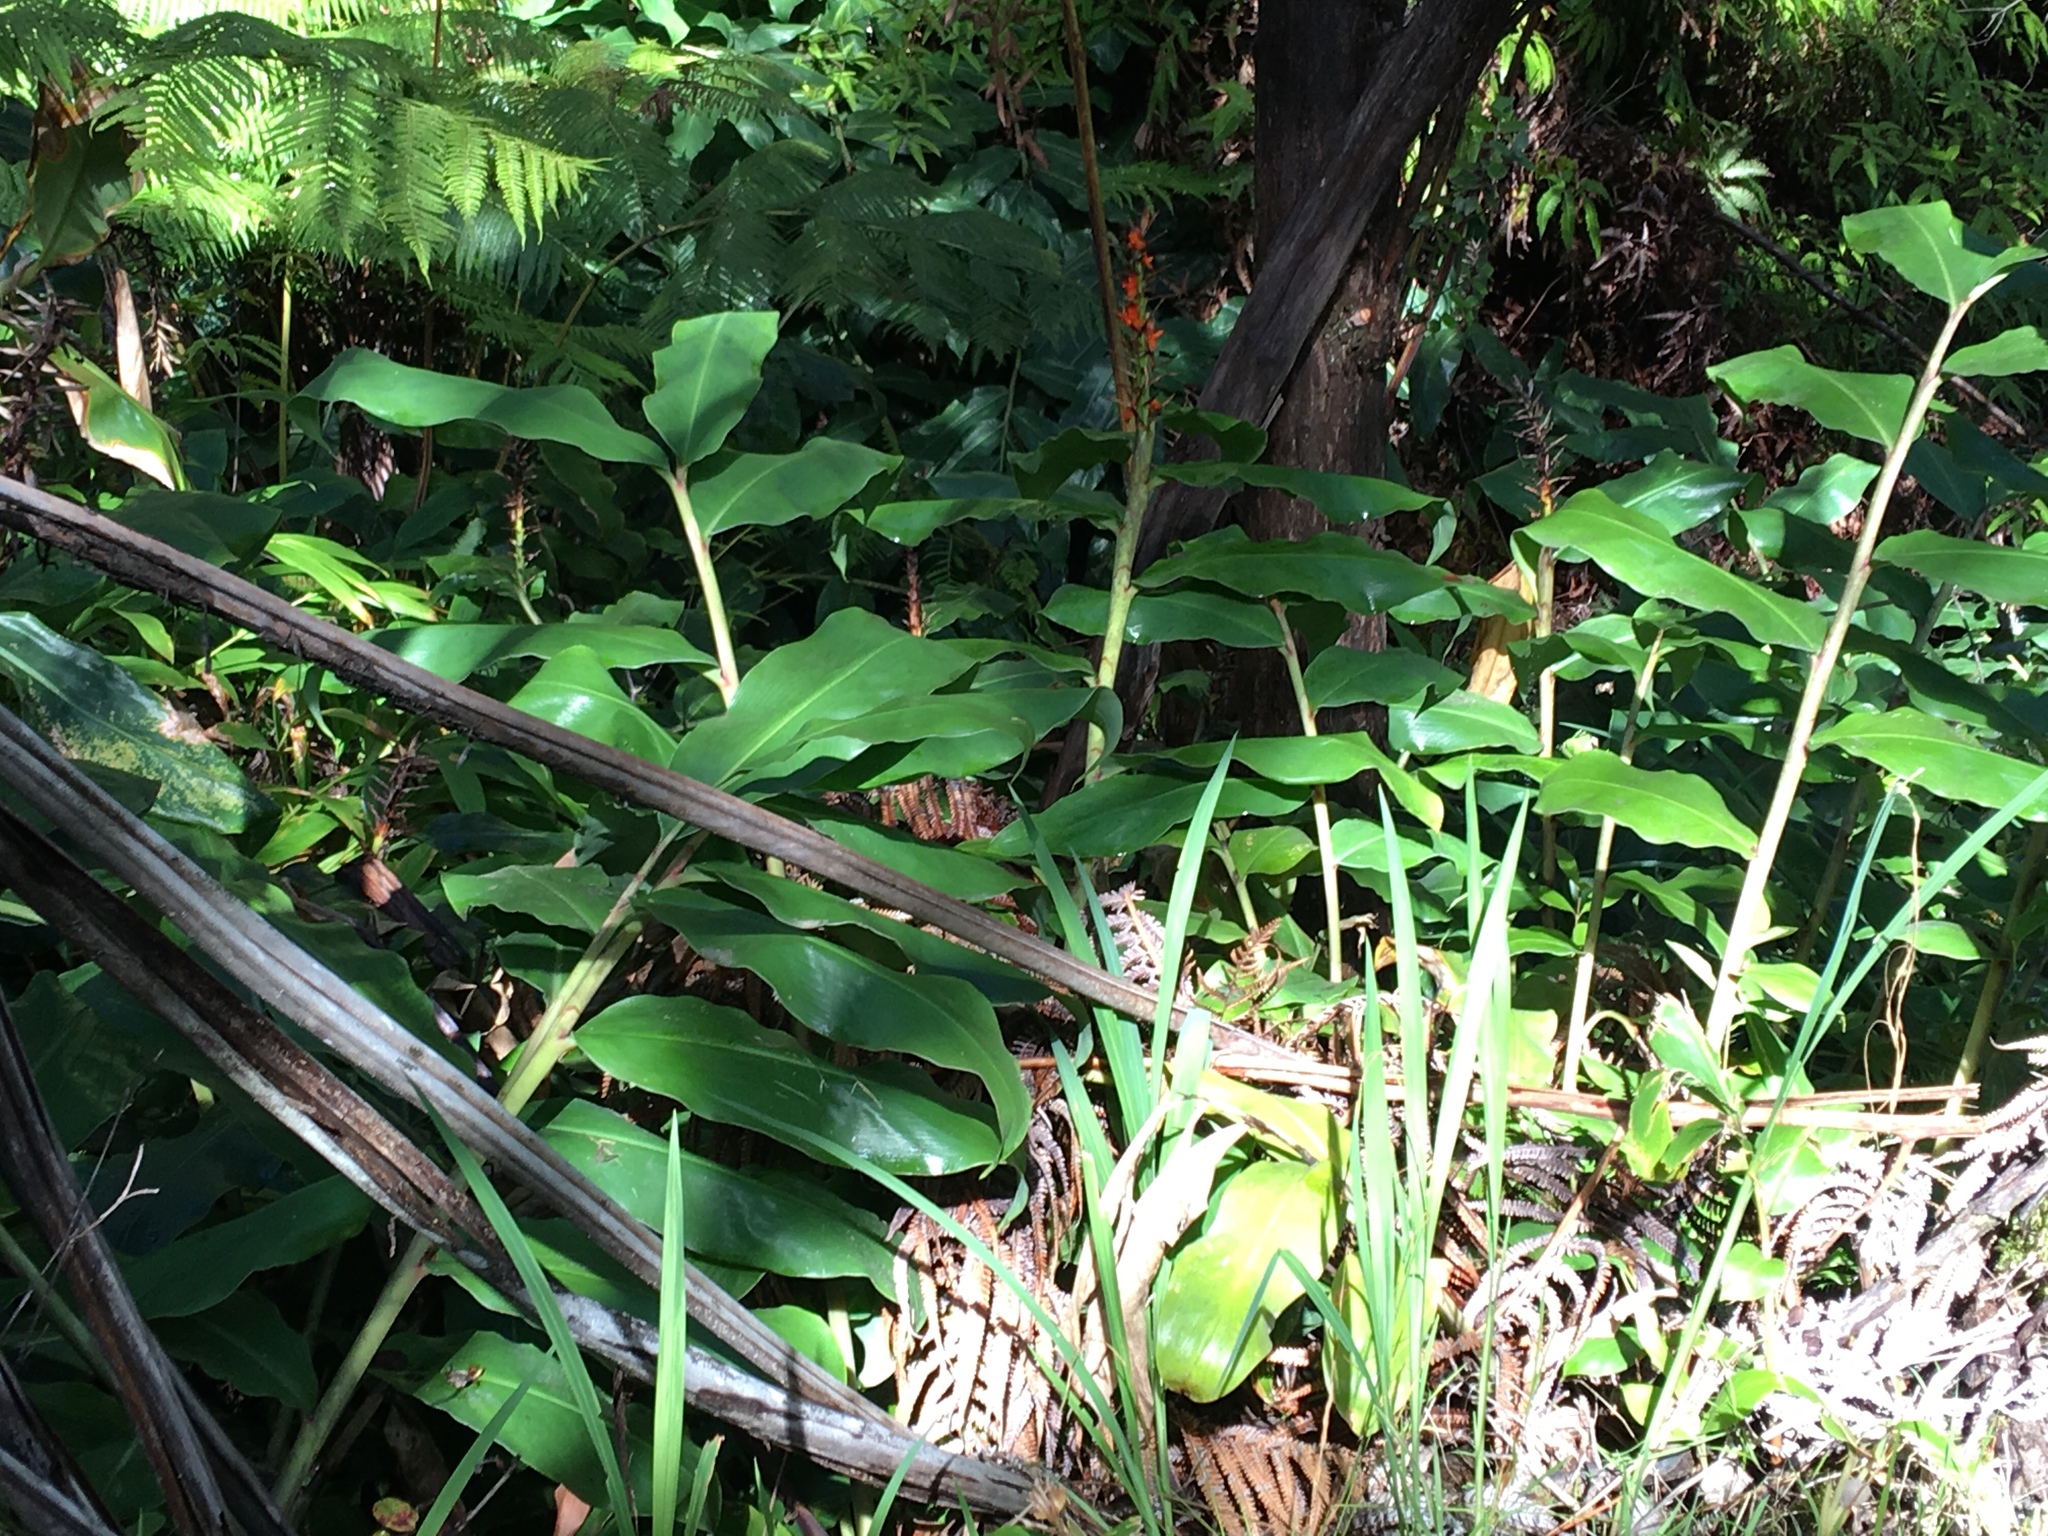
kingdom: Plantae
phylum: Tracheophyta
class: Liliopsida
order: Zingiberales
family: Zingiberaceae
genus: Hedychium
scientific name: Hedychium gardnerianum
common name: Himalayan ginger
